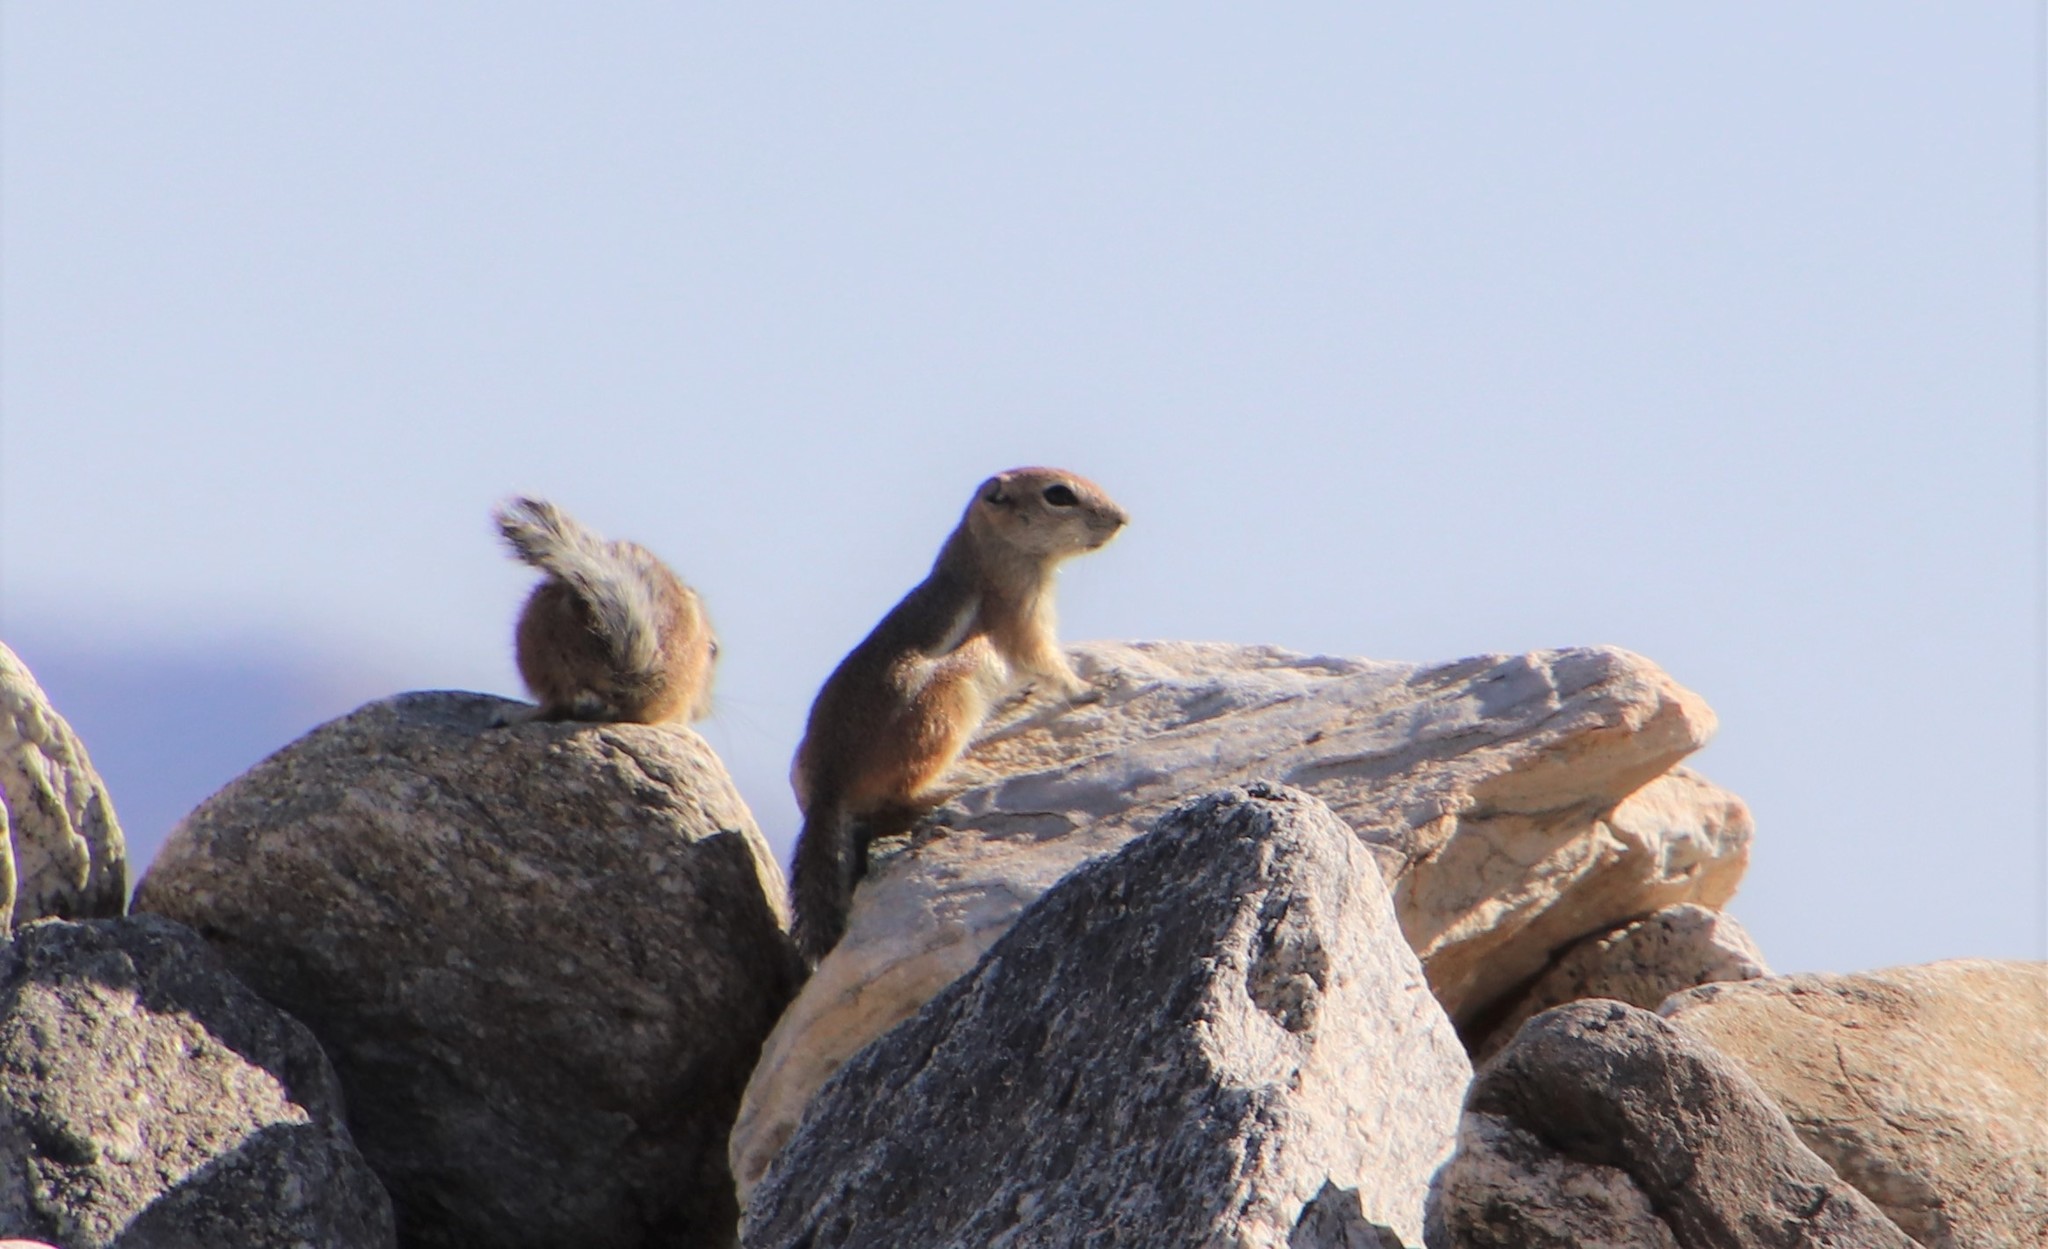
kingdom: Animalia
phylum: Chordata
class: Mammalia
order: Rodentia
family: Sciuridae
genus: Ammospermophilus
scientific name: Ammospermophilus leucurus
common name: White-tailed antelope squirrel
